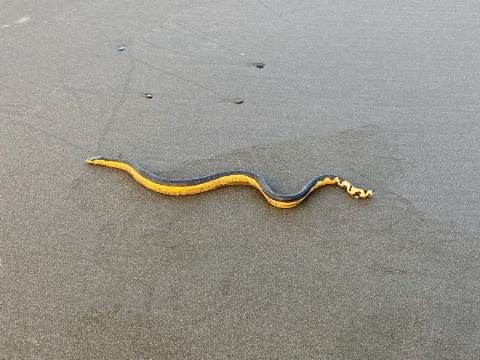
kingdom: Animalia
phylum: Chordata
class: Squamata
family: Elapidae
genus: Hydrophis
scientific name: Hydrophis platurus
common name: Pelagic sea snake
